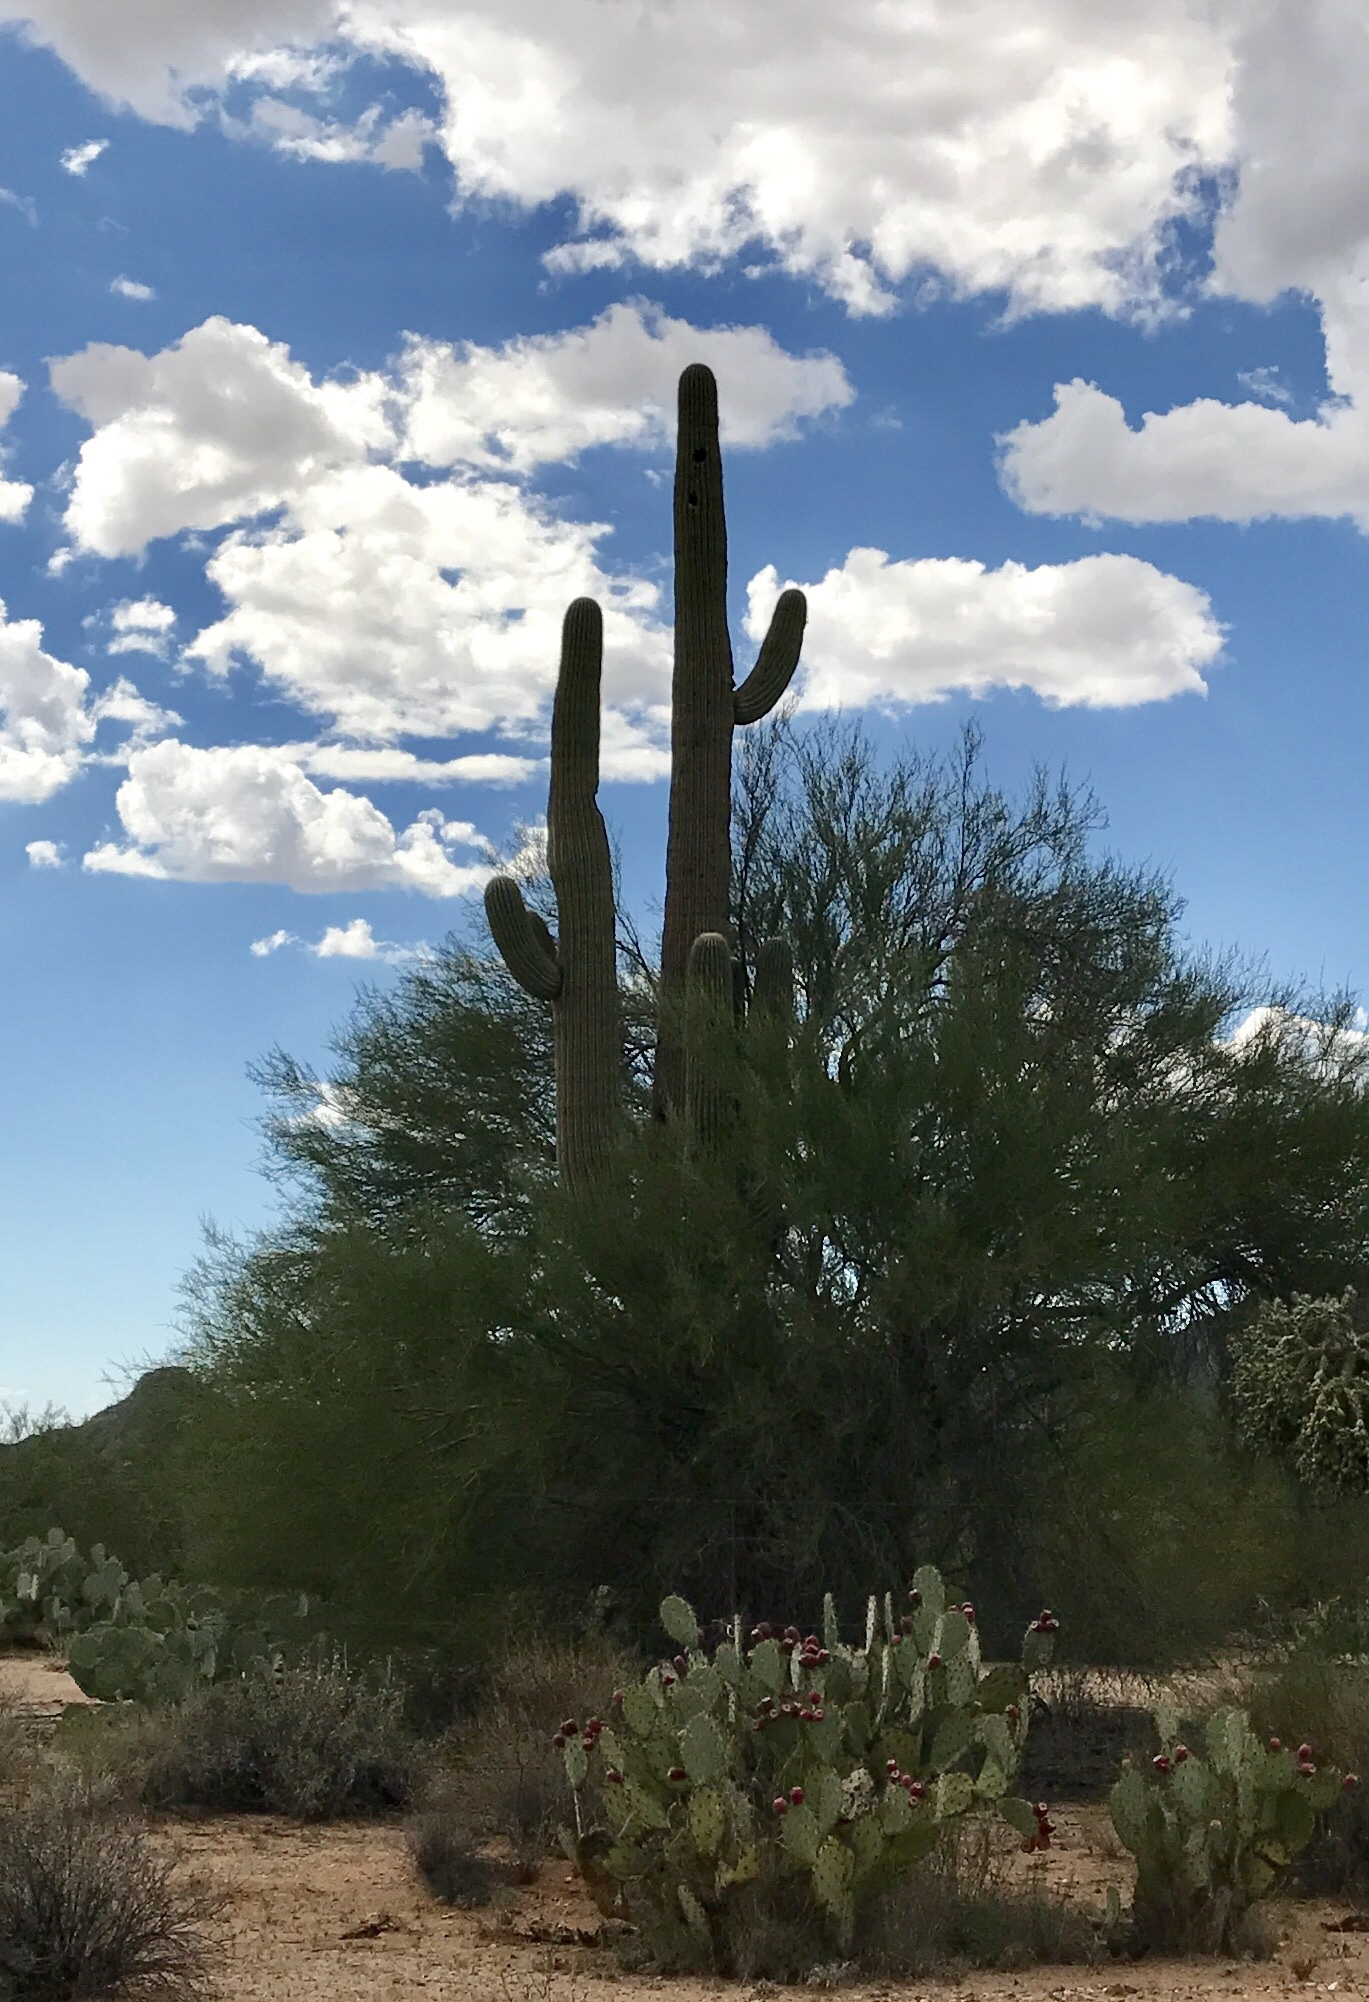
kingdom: Plantae
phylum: Tracheophyta
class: Magnoliopsida
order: Caryophyllales
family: Cactaceae
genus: Carnegiea
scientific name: Carnegiea gigantea
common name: Saguaro
